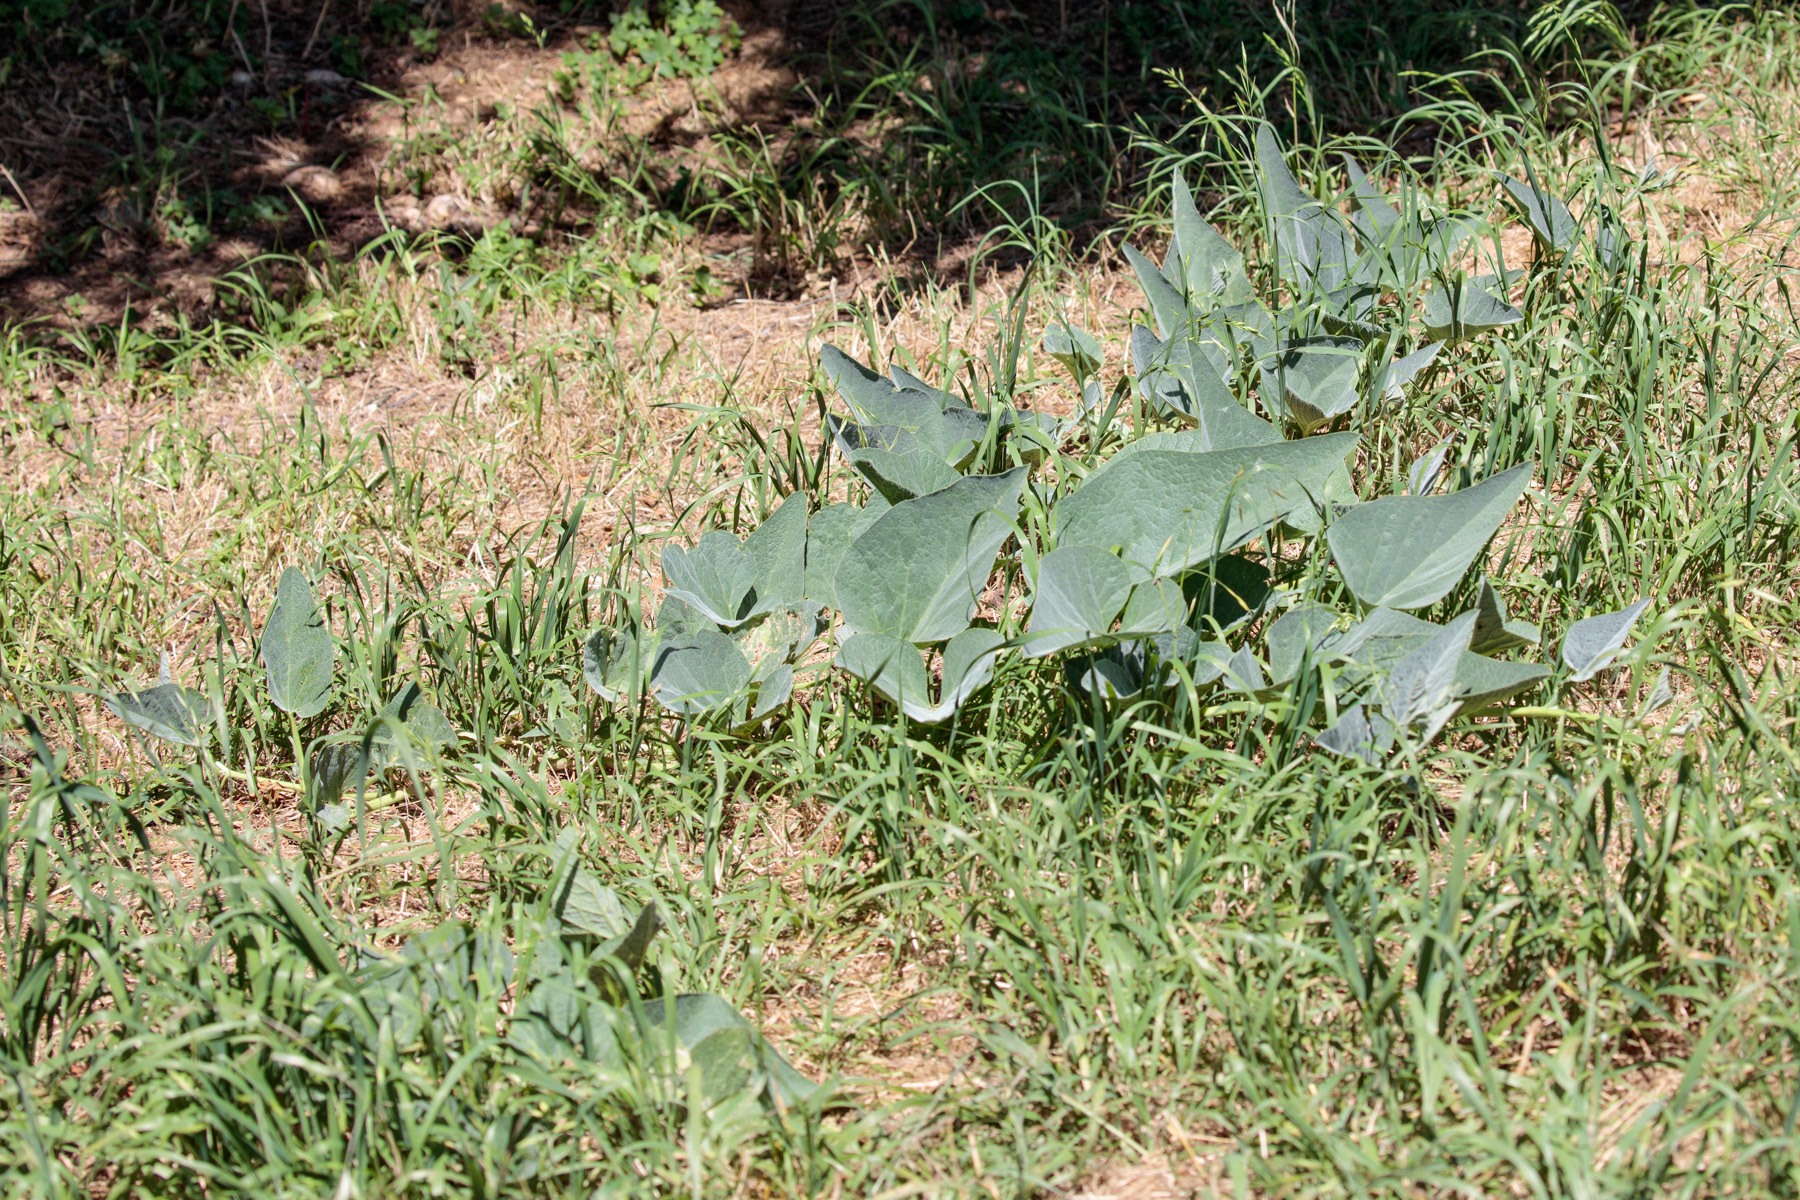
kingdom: Plantae
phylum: Tracheophyta
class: Magnoliopsida
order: Cucurbitales
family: Cucurbitaceae
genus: Cucurbita
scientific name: Cucurbita foetidissima
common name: Buffalo gourd
